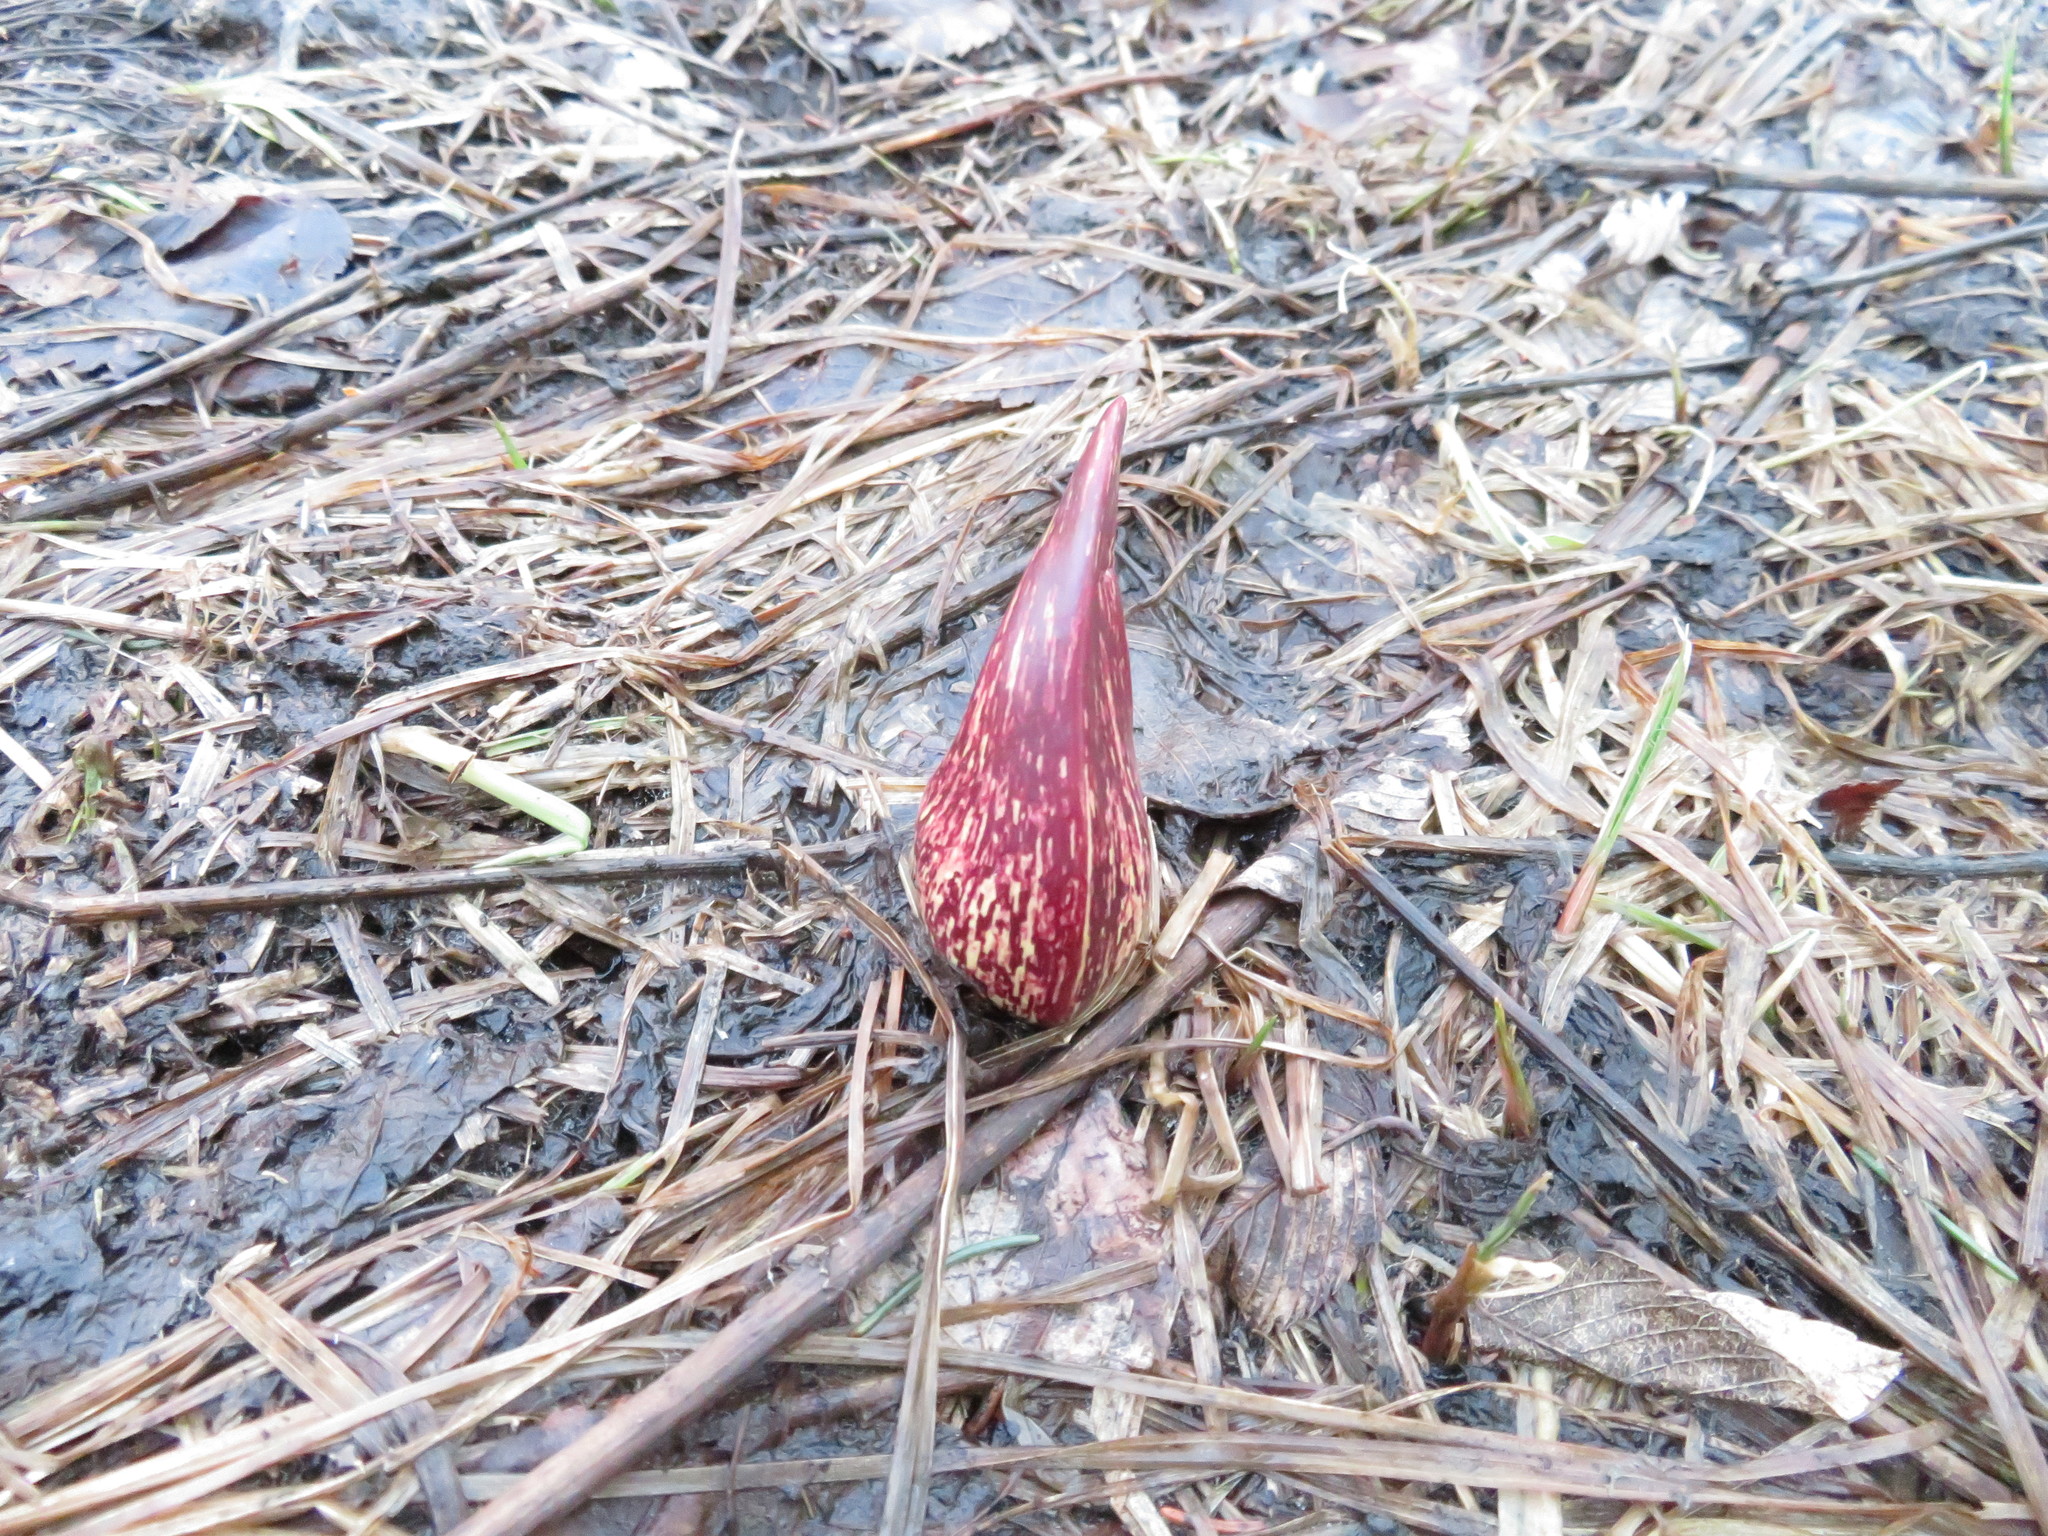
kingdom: Plantae
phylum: Tracheophyta
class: Liliopsida
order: Alismatales
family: Araceae
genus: Symplocarpus
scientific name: Symplocarpus foetidus
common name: Eastern skunk cabbage
